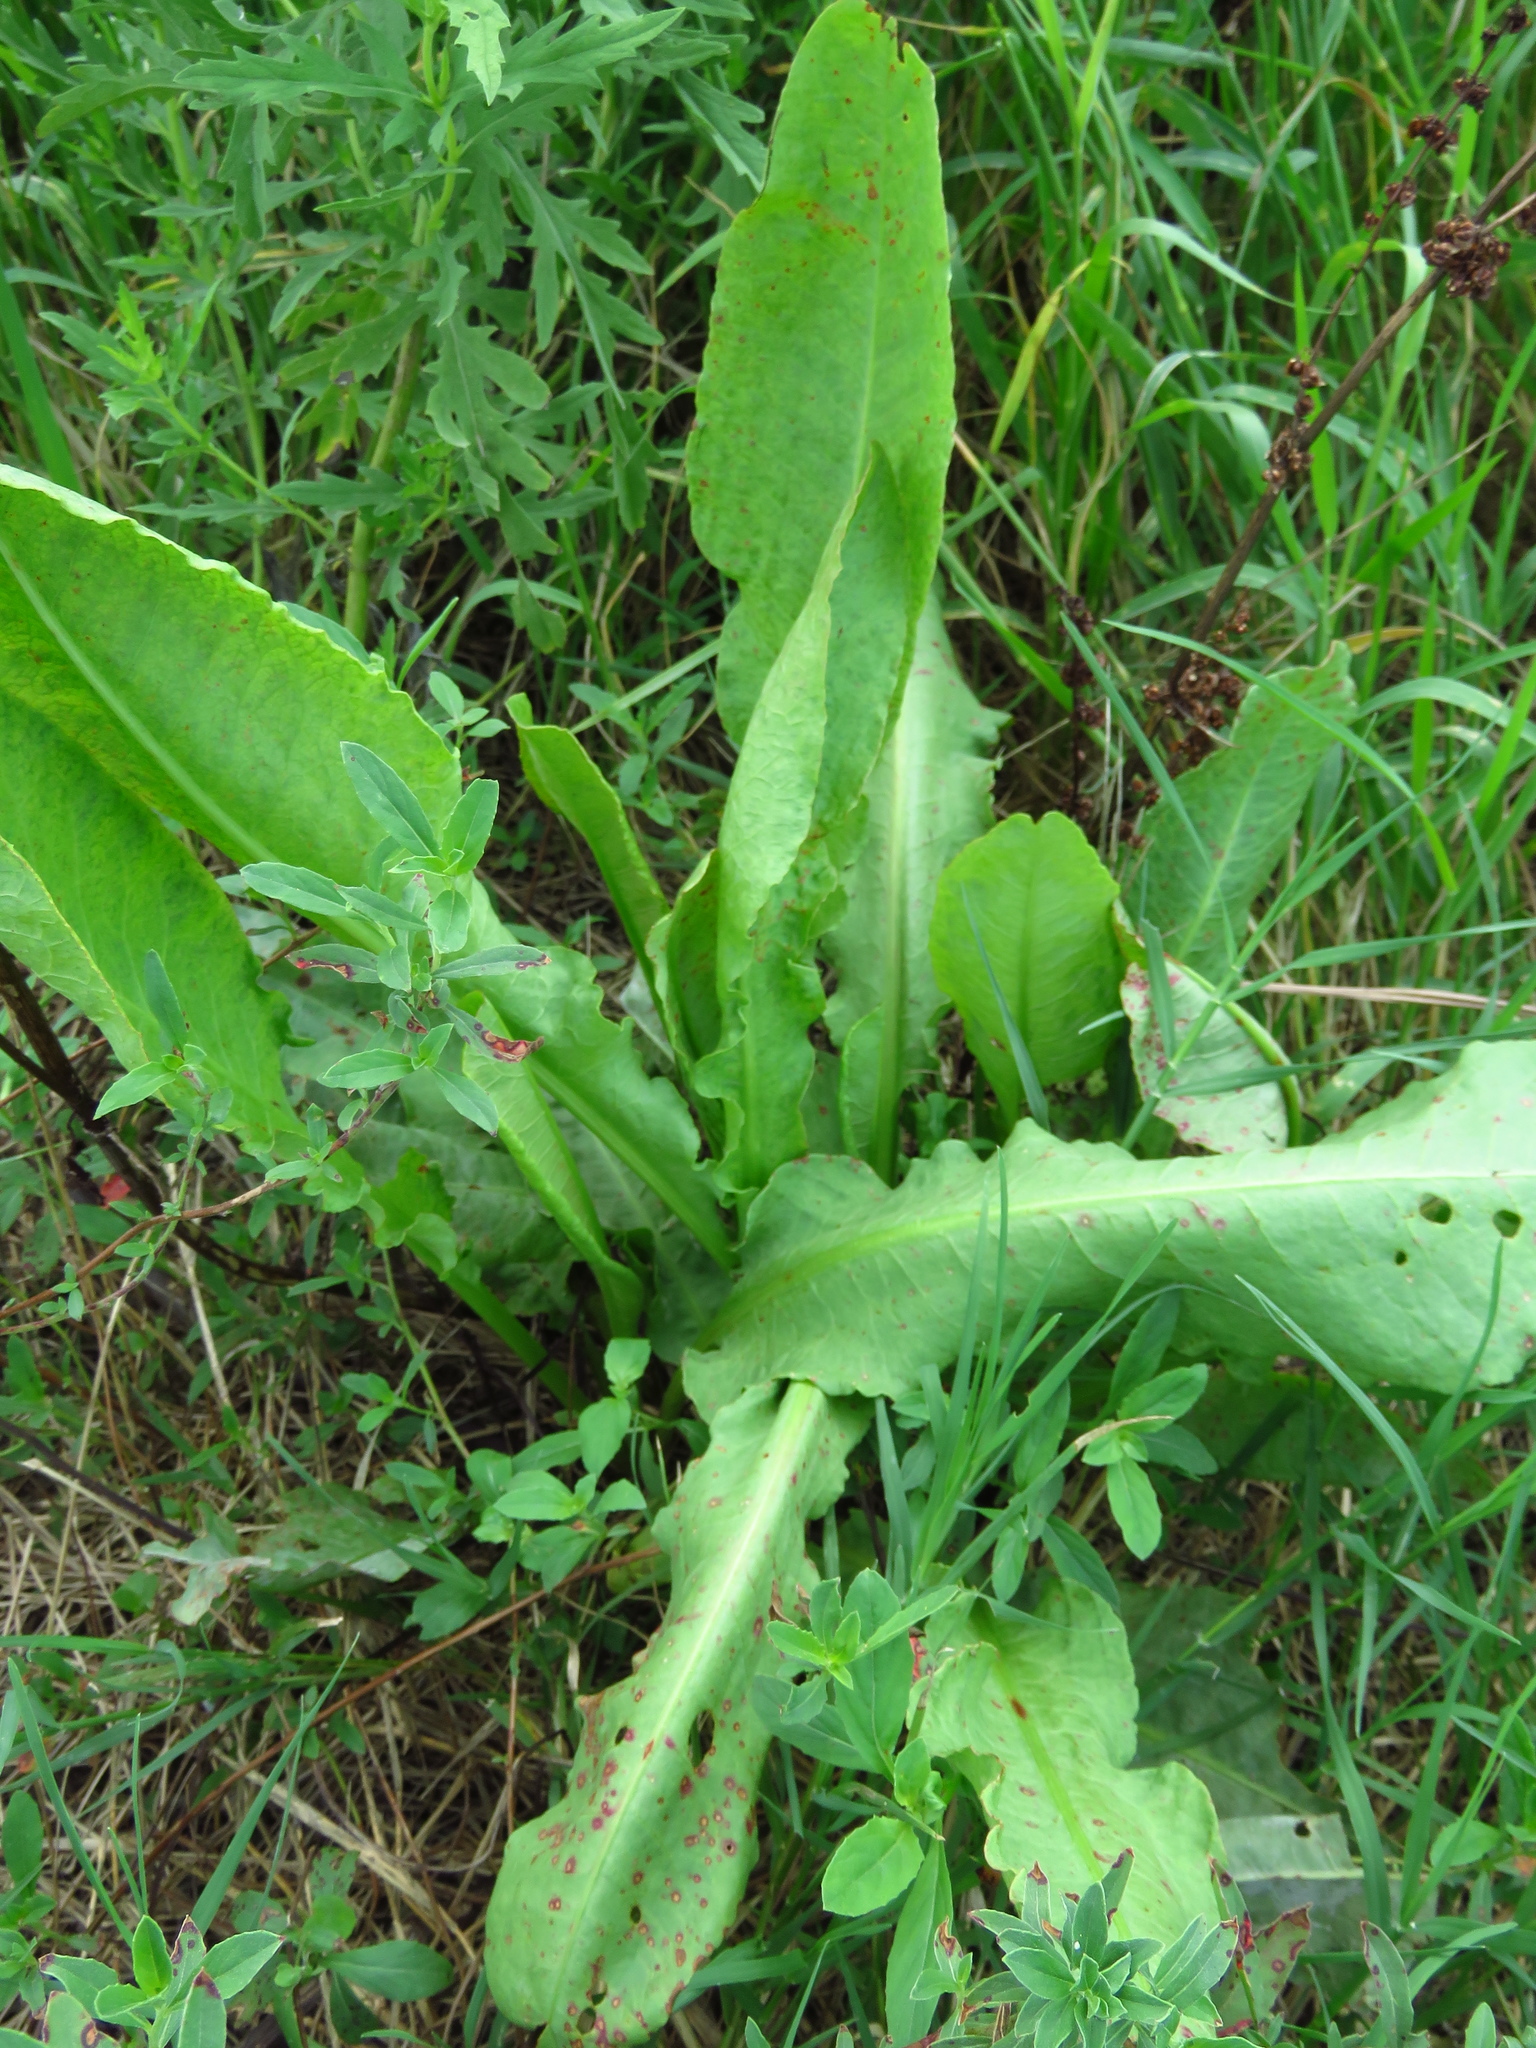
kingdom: Plantae
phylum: Tracheophyta
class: Magnoliopsida
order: Caryophyllales
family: Polygonaceae
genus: Rumex
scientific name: Rumex crispus
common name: Curled dock
